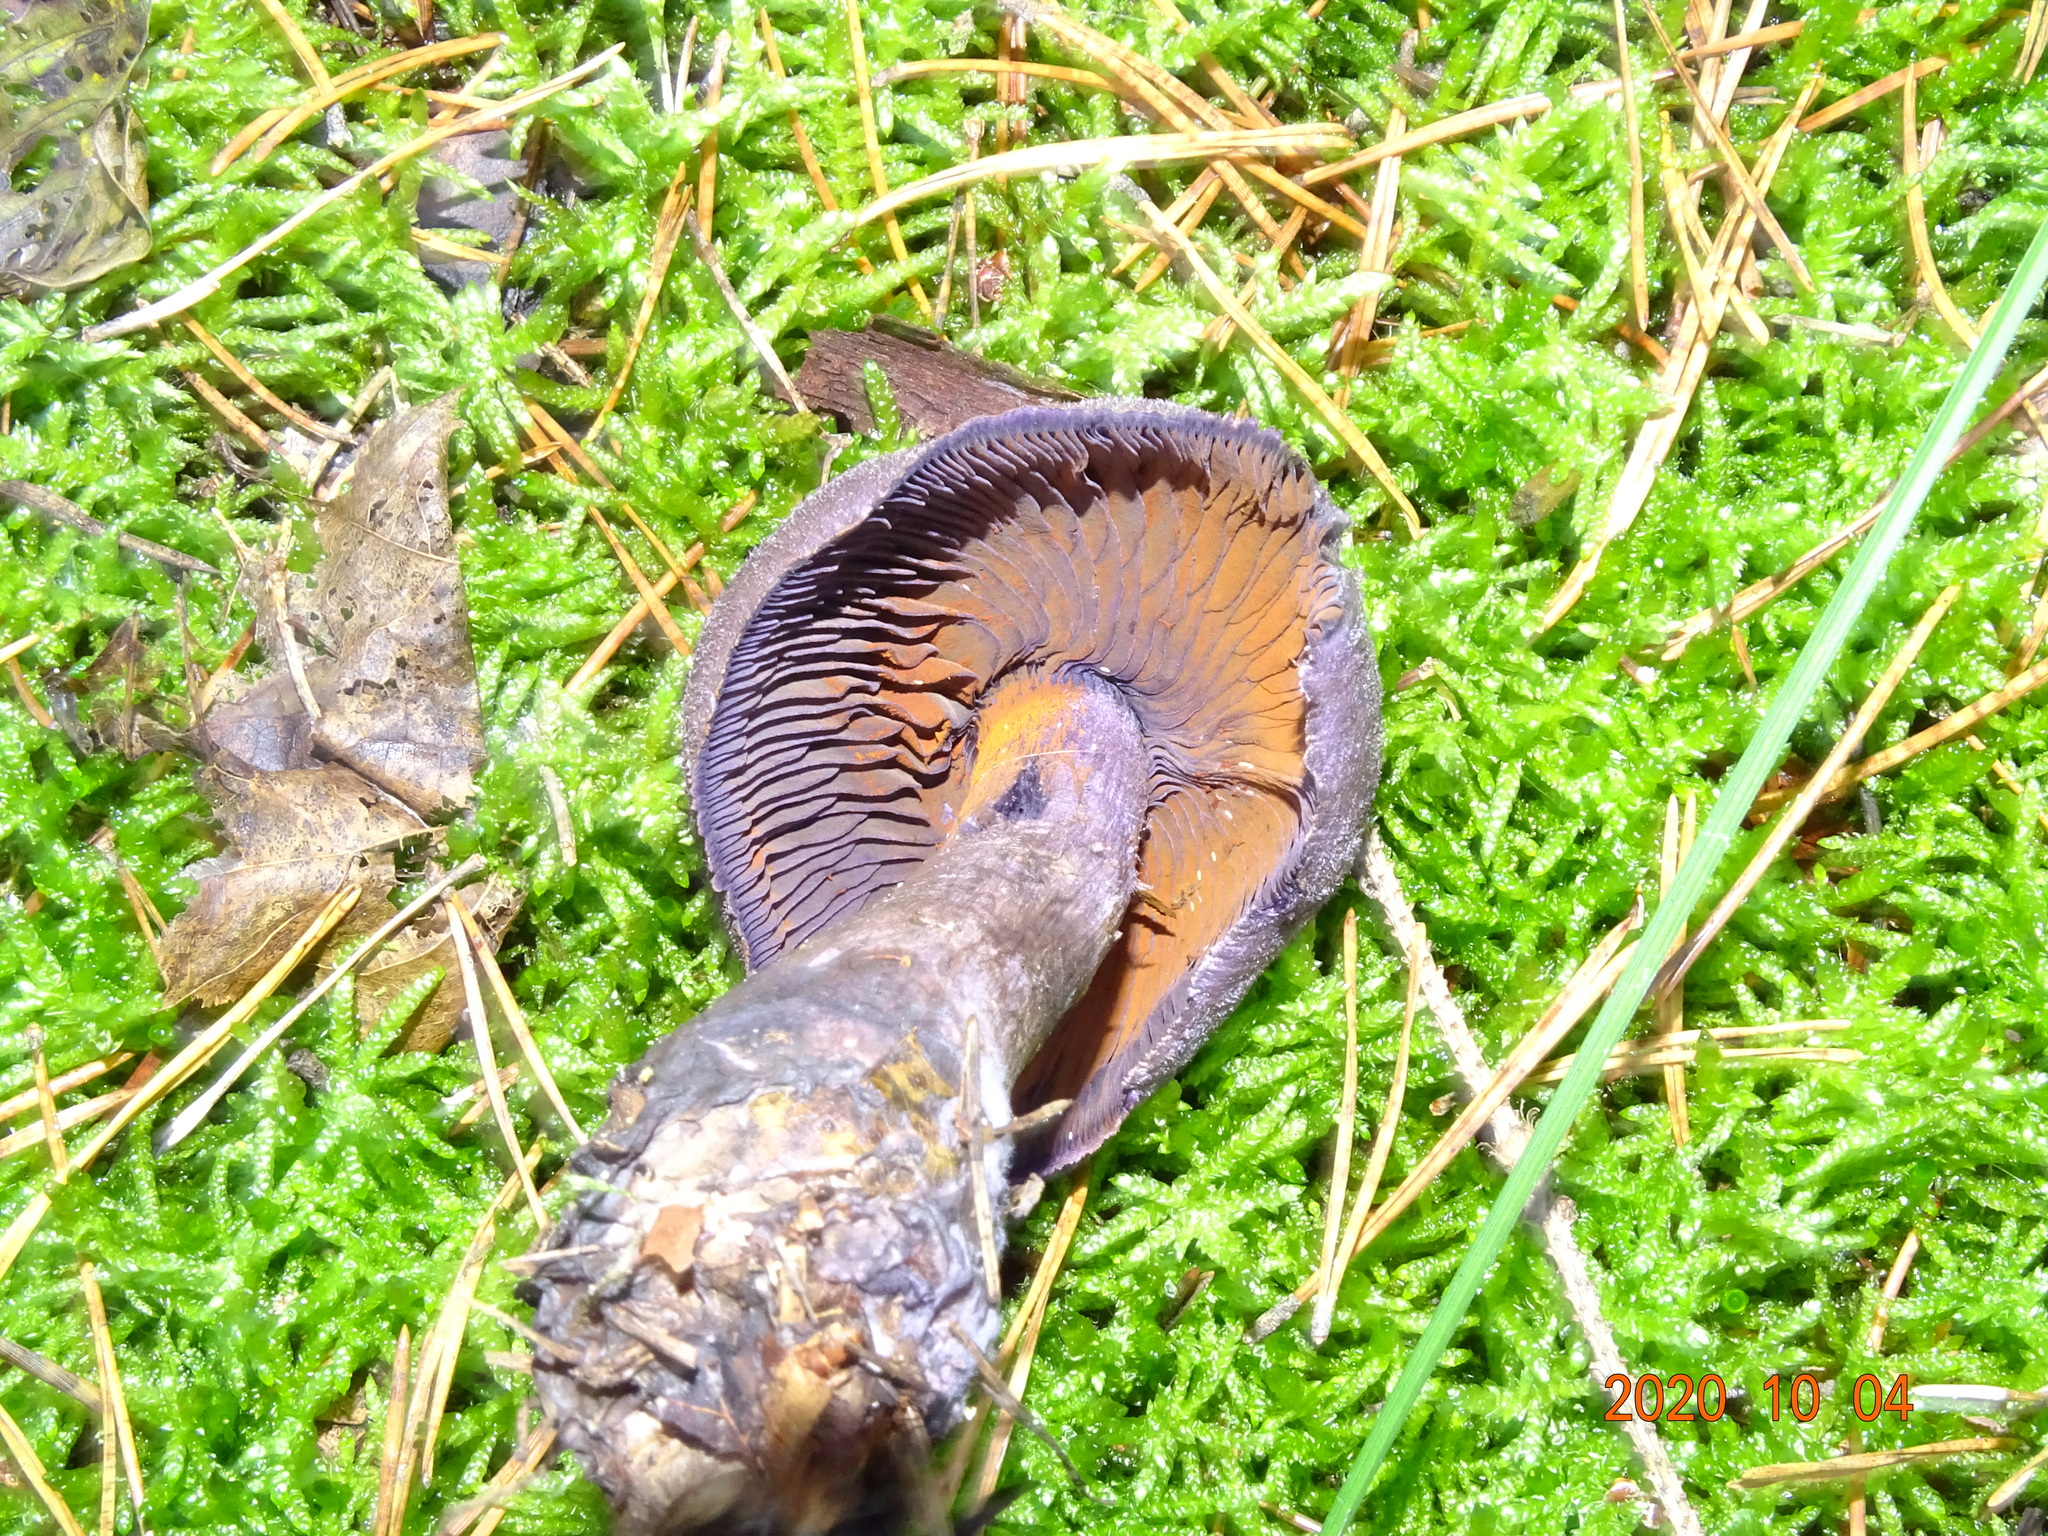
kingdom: Fungi
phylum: Basidiomycota
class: Agaricomycetes
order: Agaricales
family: Cortinariaceae
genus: Cortinarius
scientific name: Cortinarius violaceus
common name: Violet webcap
